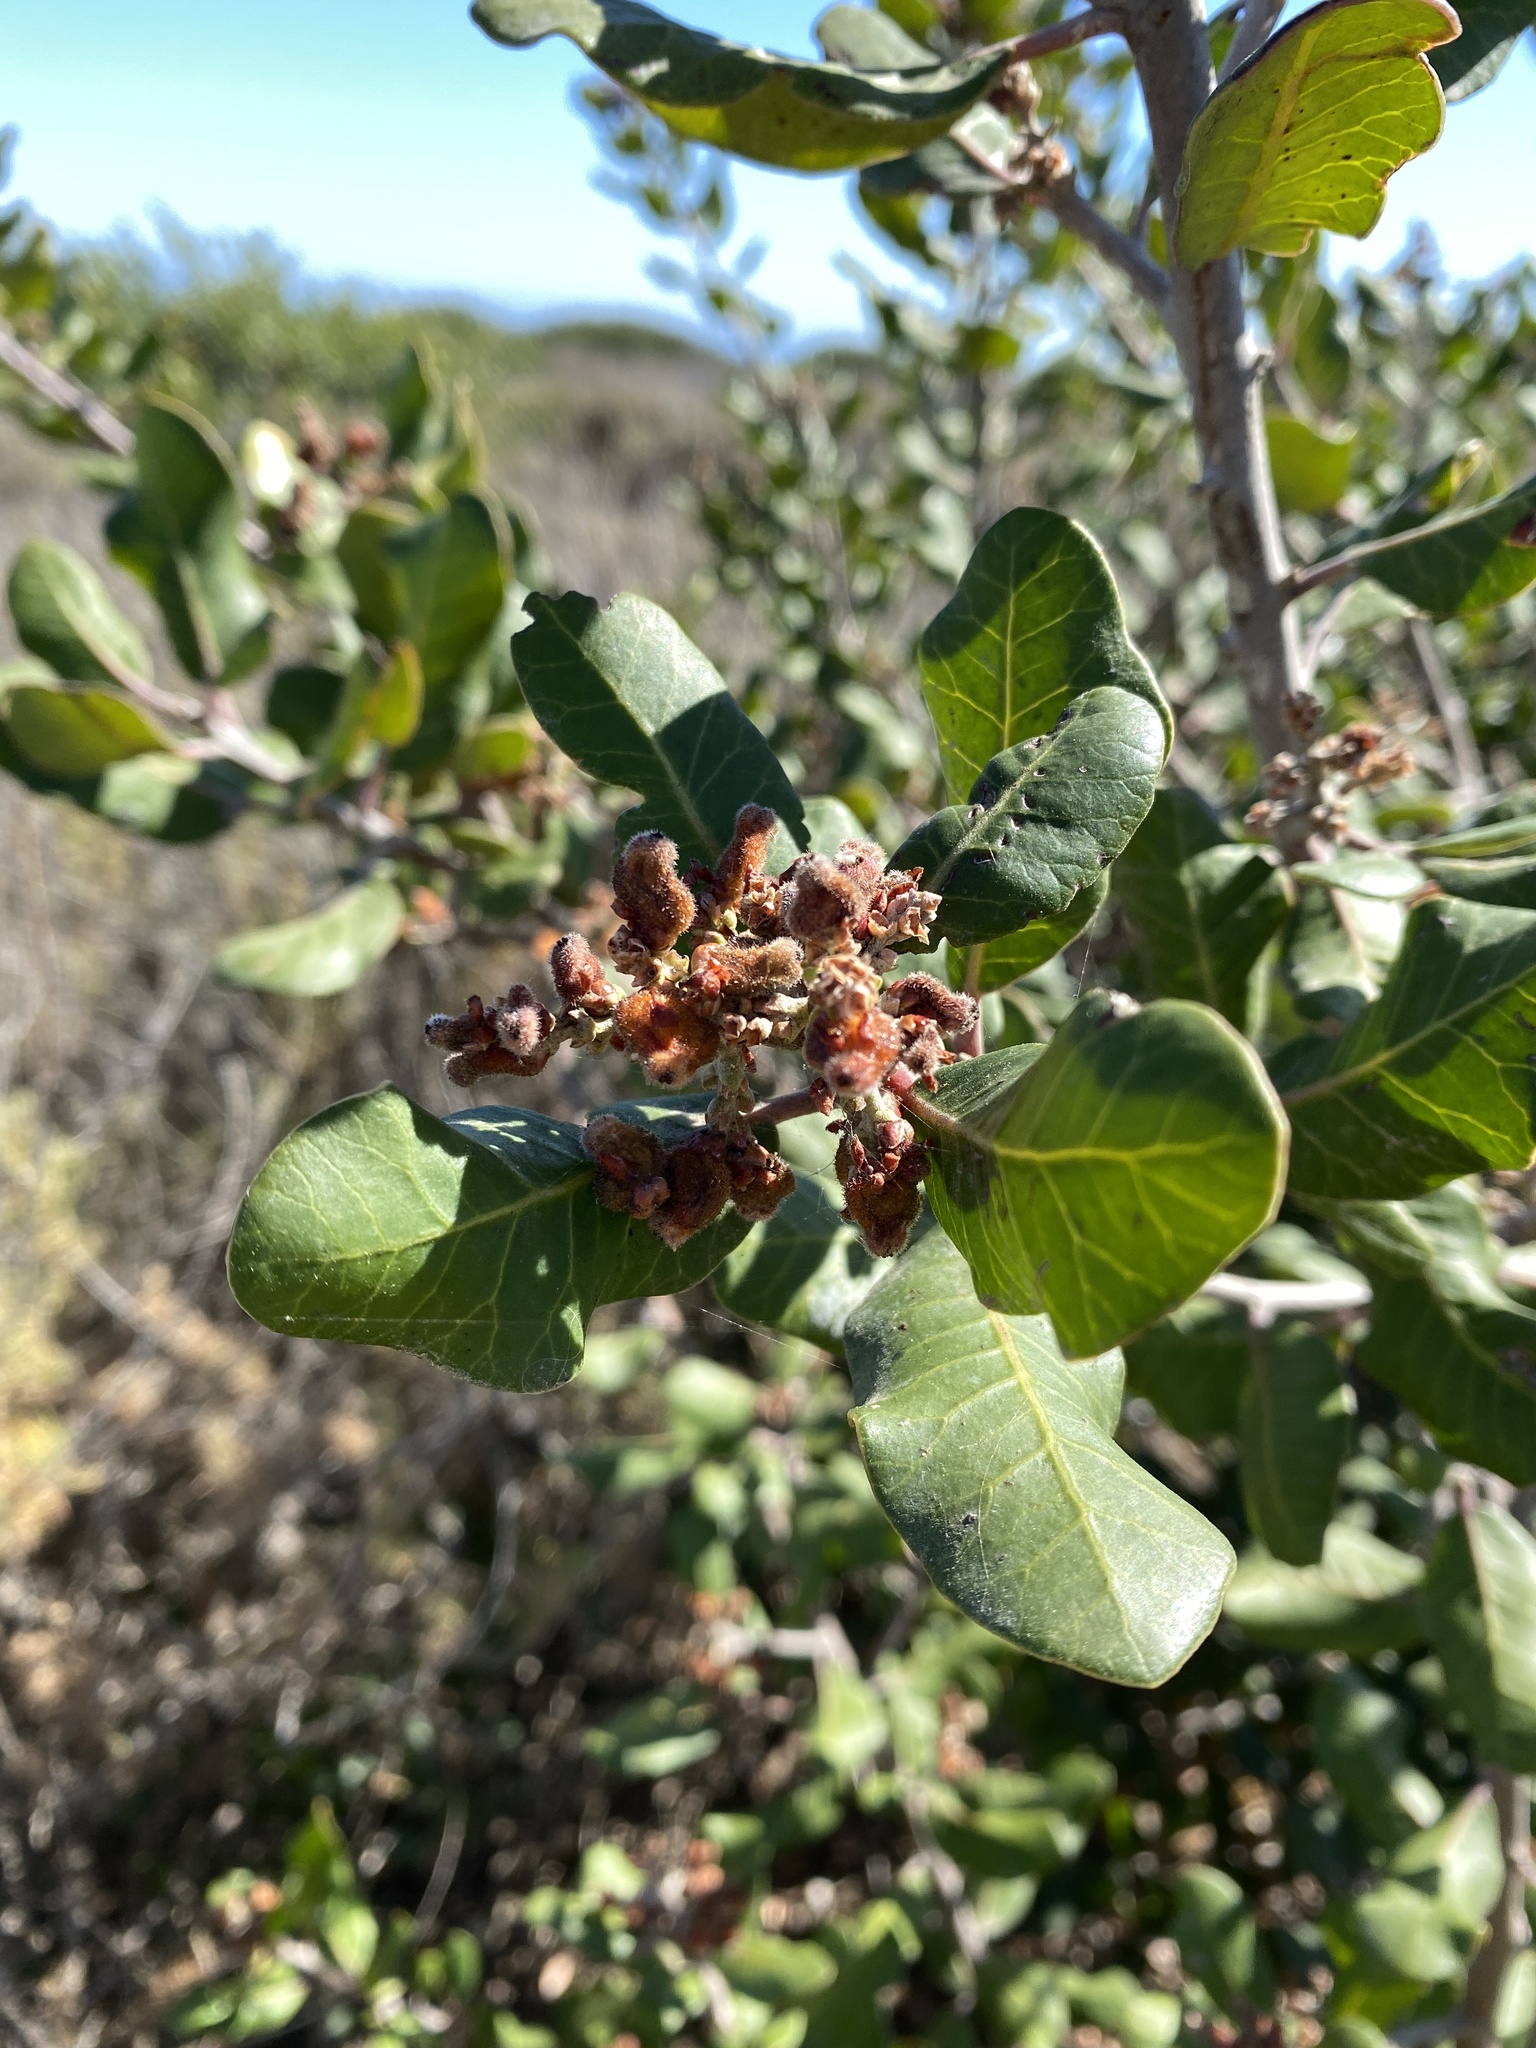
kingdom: Plantae
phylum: Tracheophyta
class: Magnoliopsida
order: Sapindales
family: Anacardiaceae
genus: Rhus
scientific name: Rhus integrifolia
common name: Lemonade sumac
